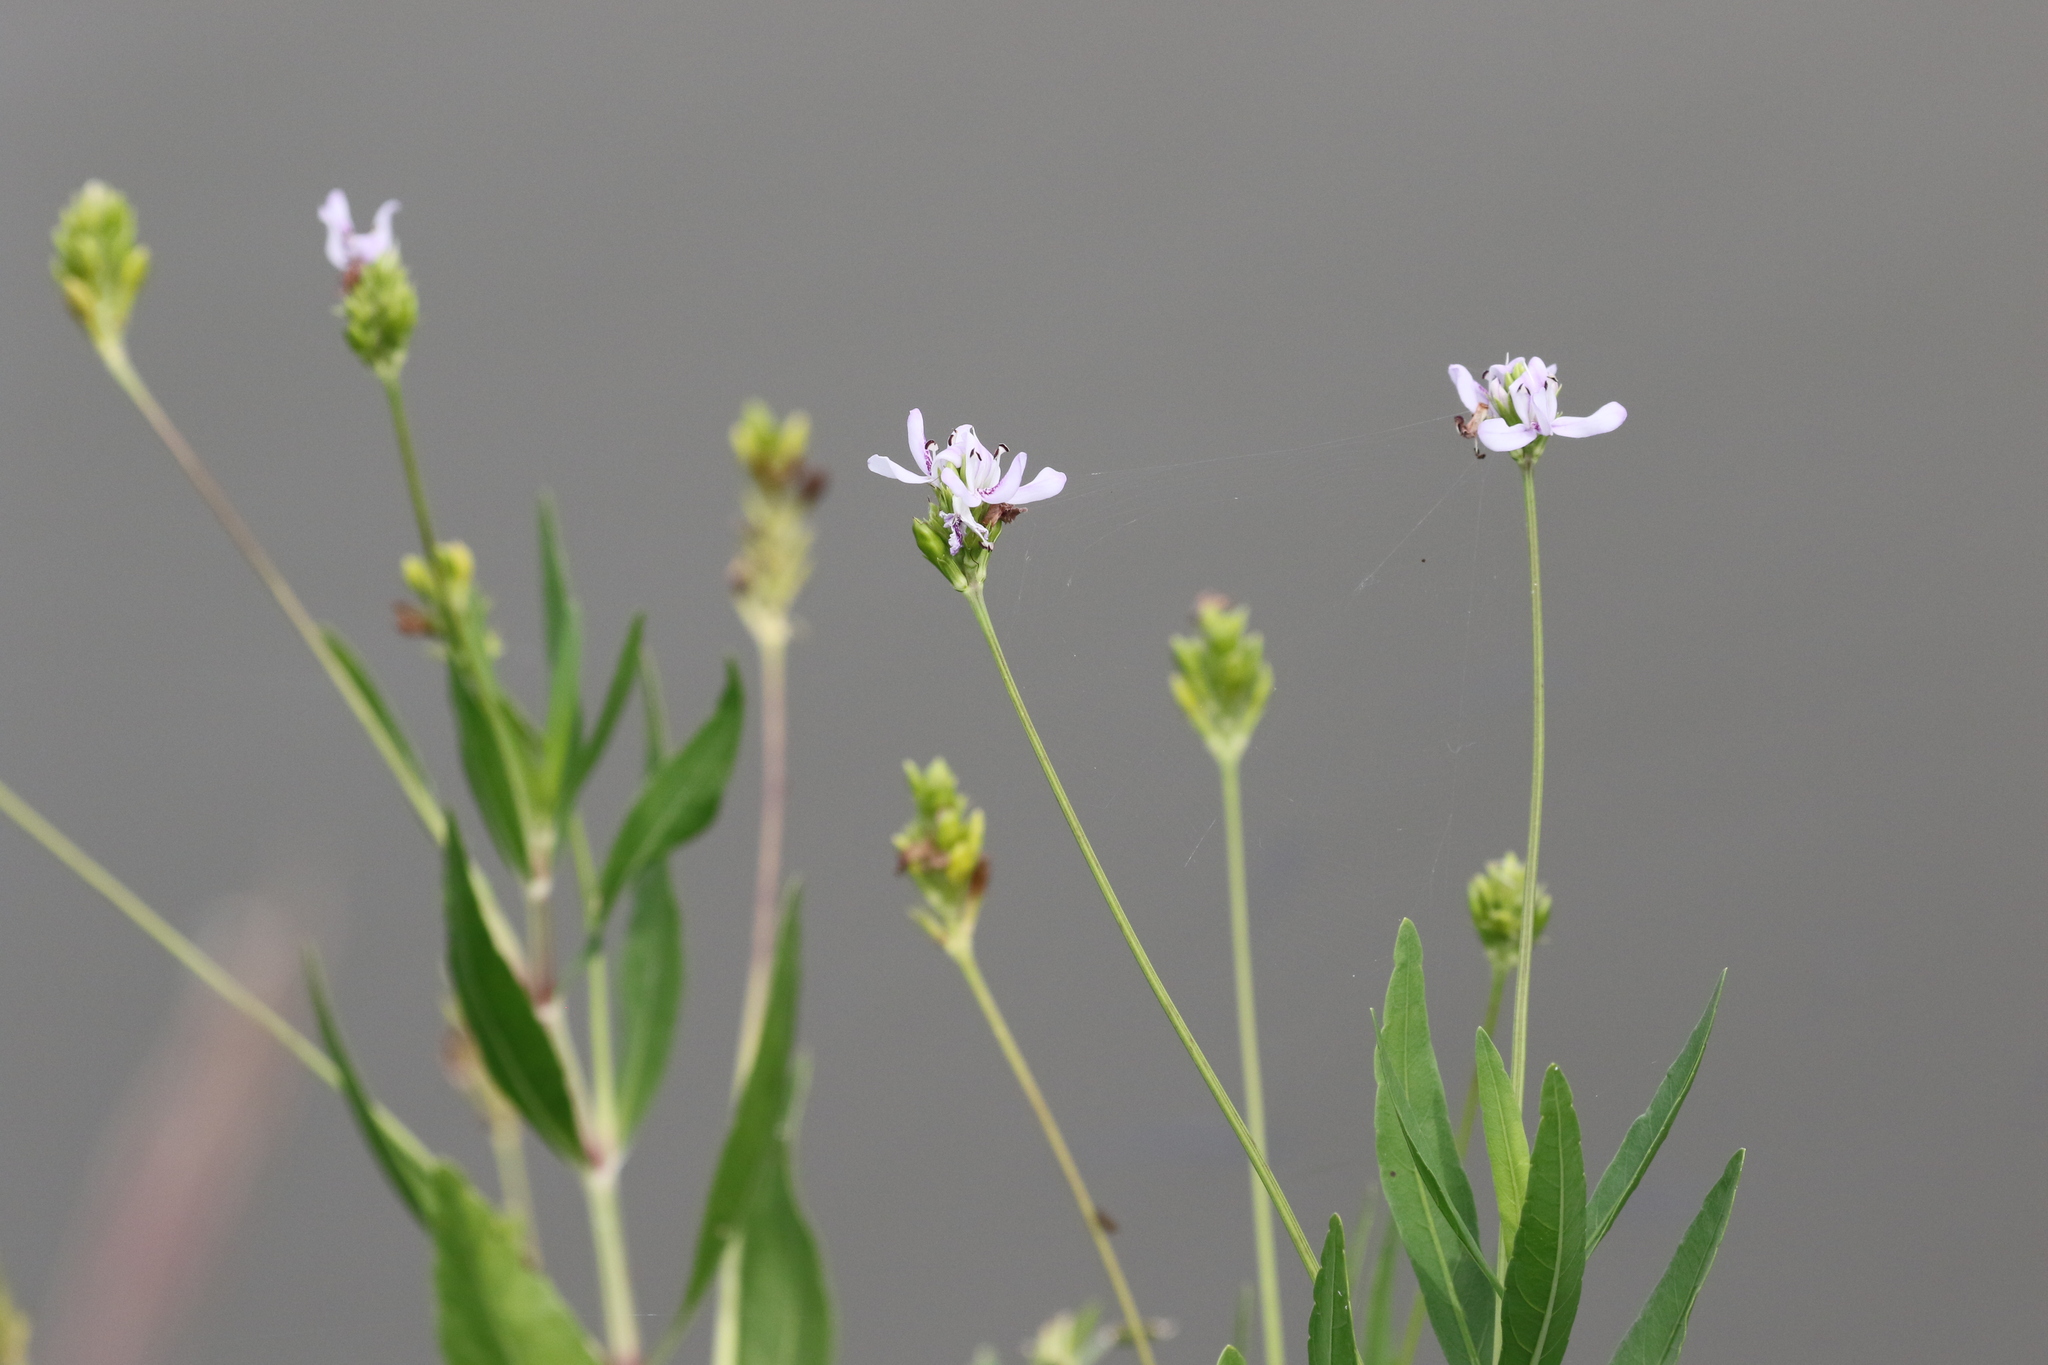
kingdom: Plantae
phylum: Tracheophyta
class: Magnoliopsida
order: Lamiales
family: Acanthaceae
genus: Dianthera
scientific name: Dianthera americana
